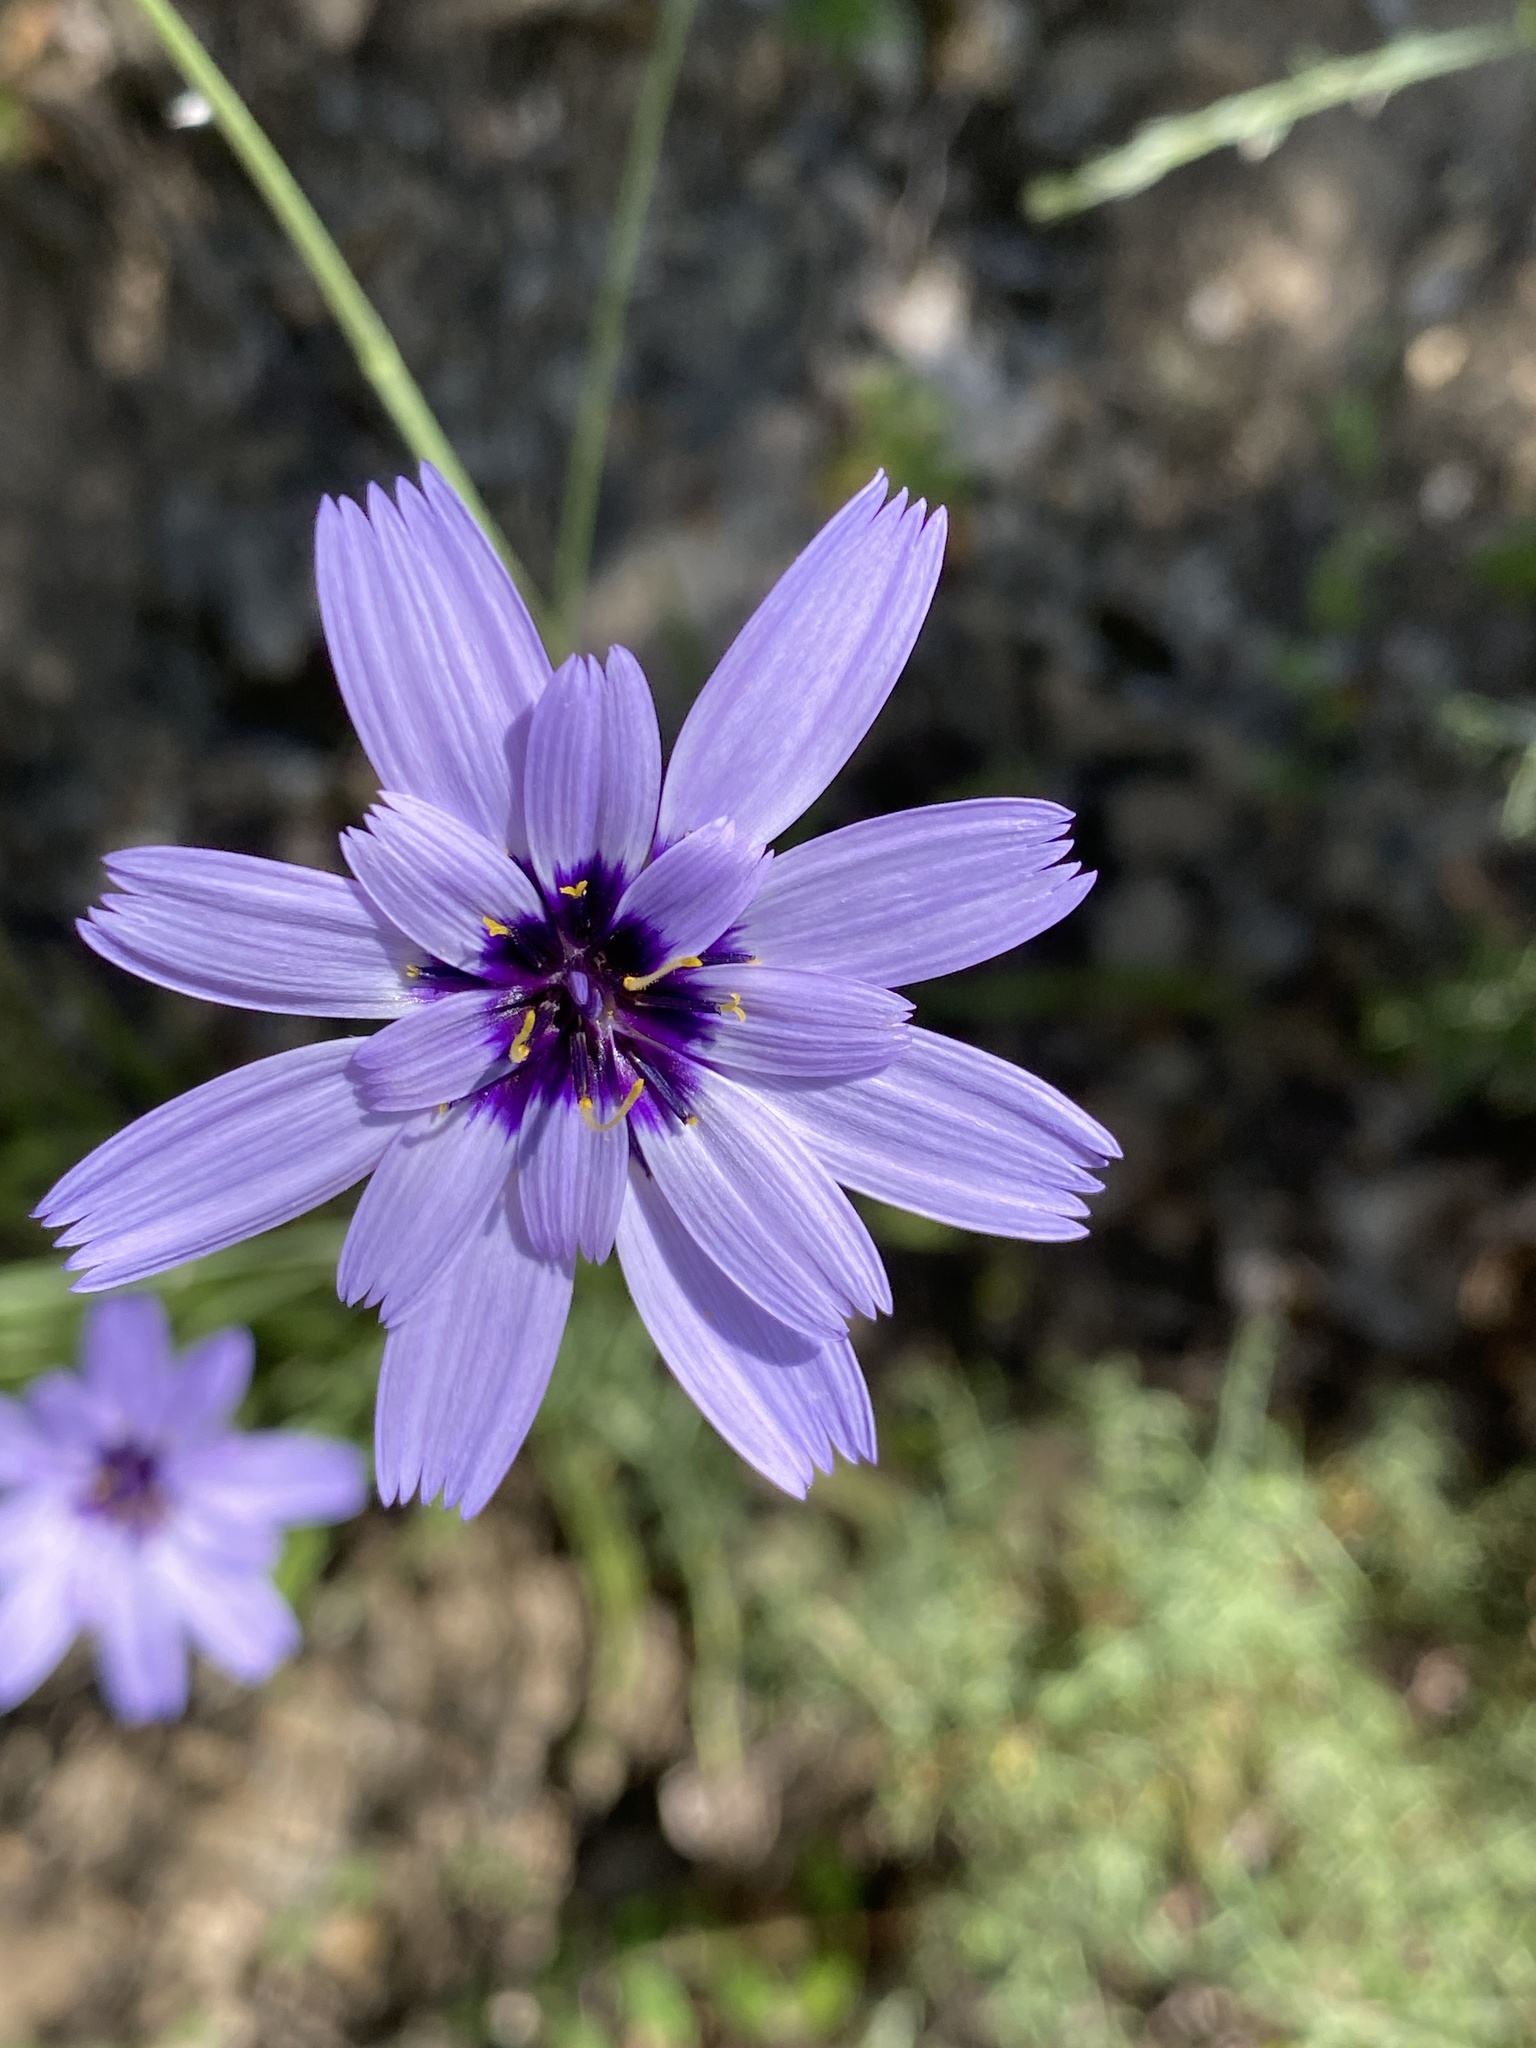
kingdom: Plantae
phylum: Tracheophyta
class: Magnoliopsida
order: Asterales
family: Asteraceae
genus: Catananche
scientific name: Catananche caerulea
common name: Blue cupidone
